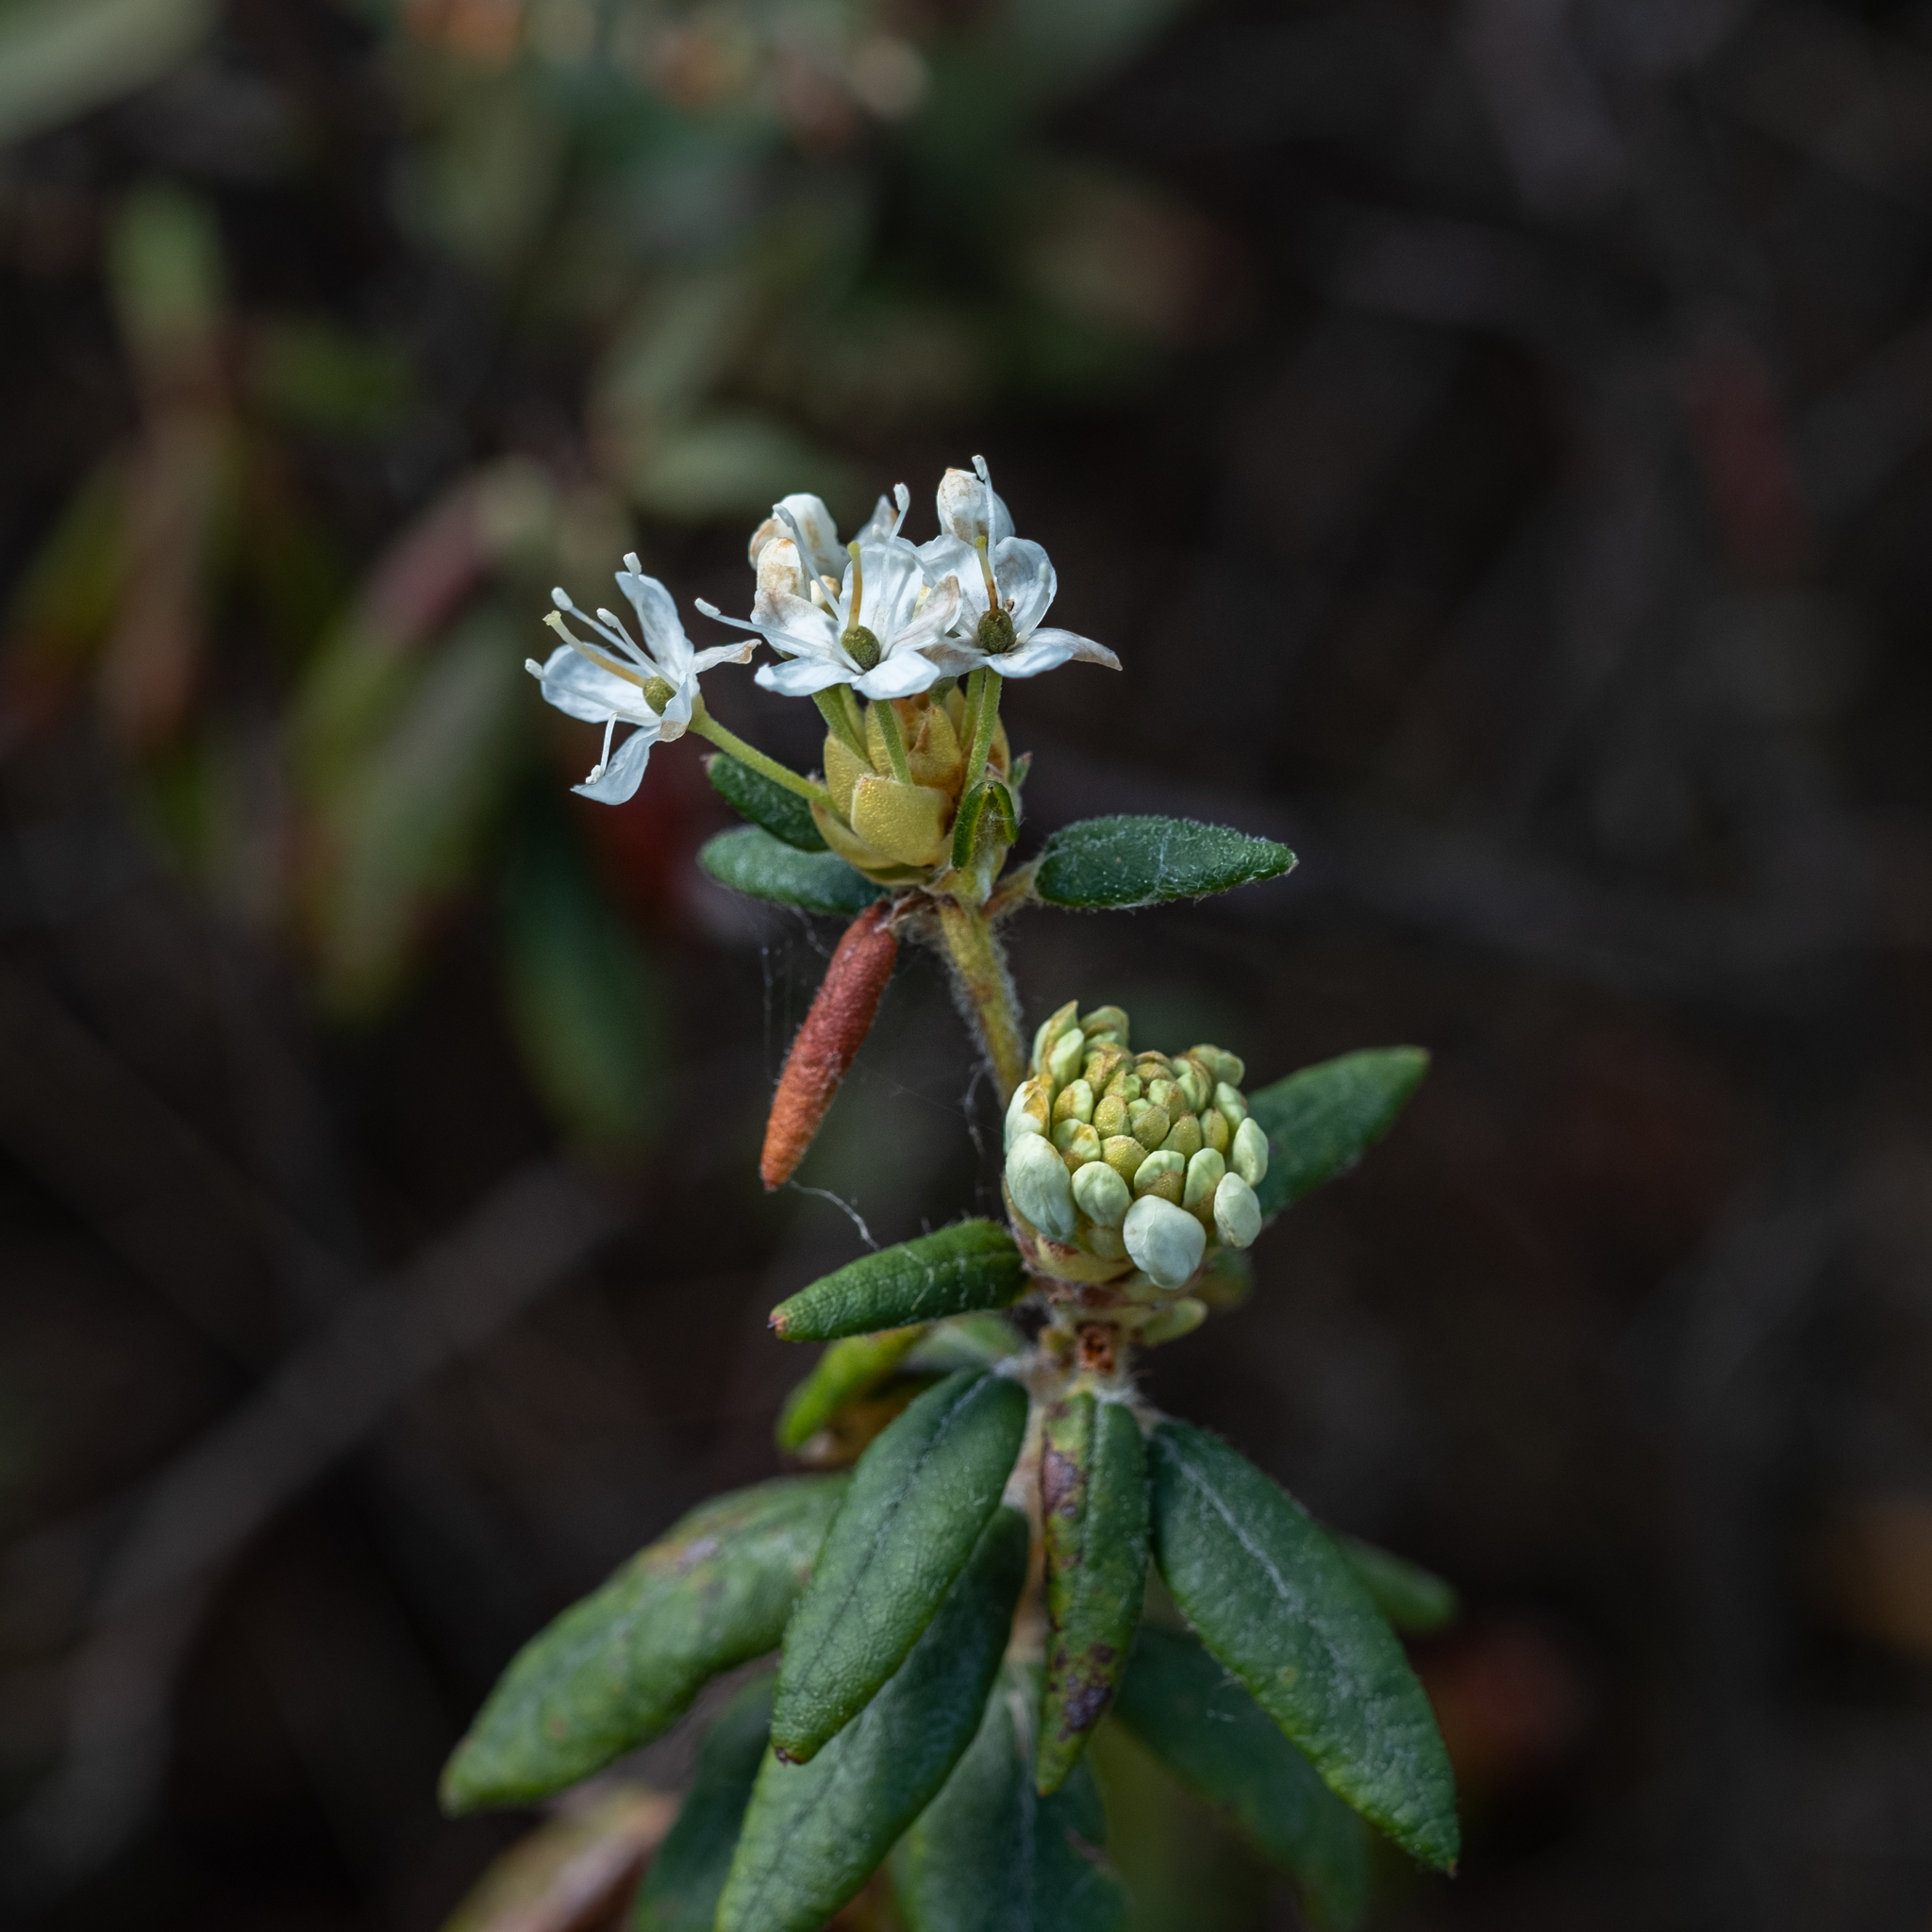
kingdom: Plantae
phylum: Tracheophyta
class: Magnoliopsida
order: Ericales
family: Ericaceae
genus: Rhododendron
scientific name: Rhododendron groenlandicum
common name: Bog labrador tea
